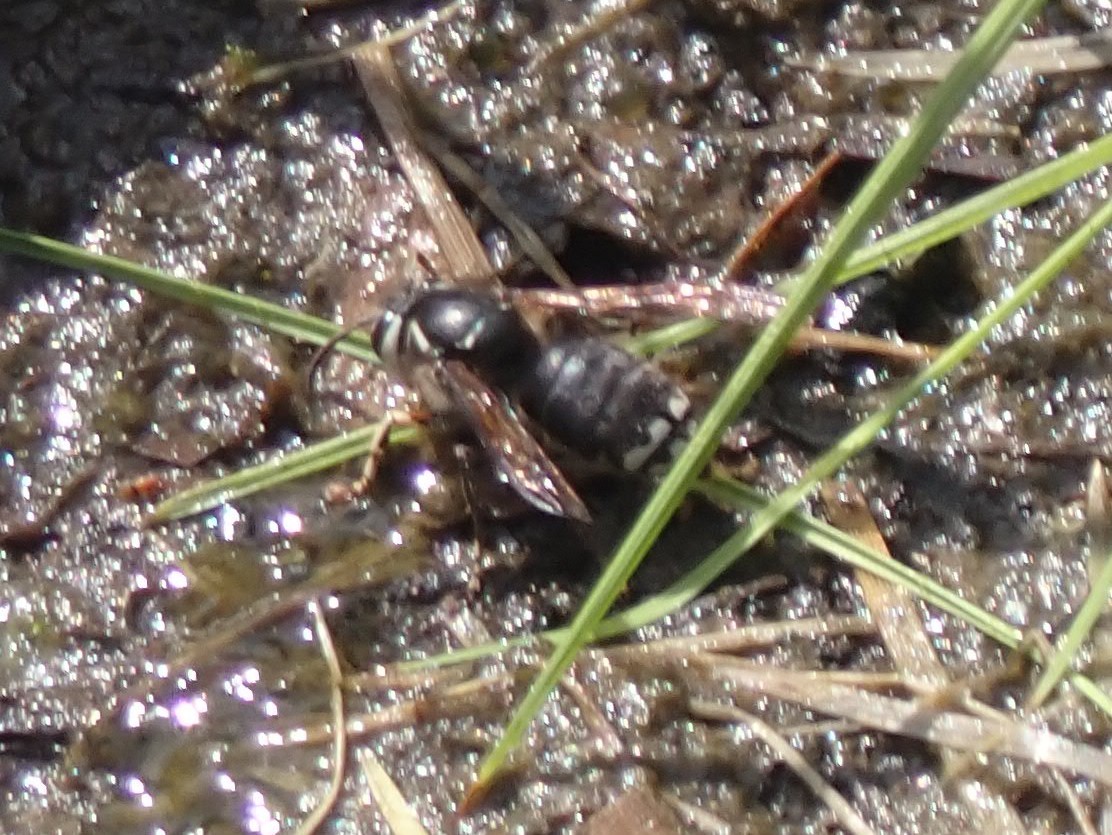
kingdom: Animalia
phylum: Arthropoda
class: Insecta
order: Hymenoptera
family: Vespidae
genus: Dolichovespula
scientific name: Dolichovespula maculata
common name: Bald-faced hornet
